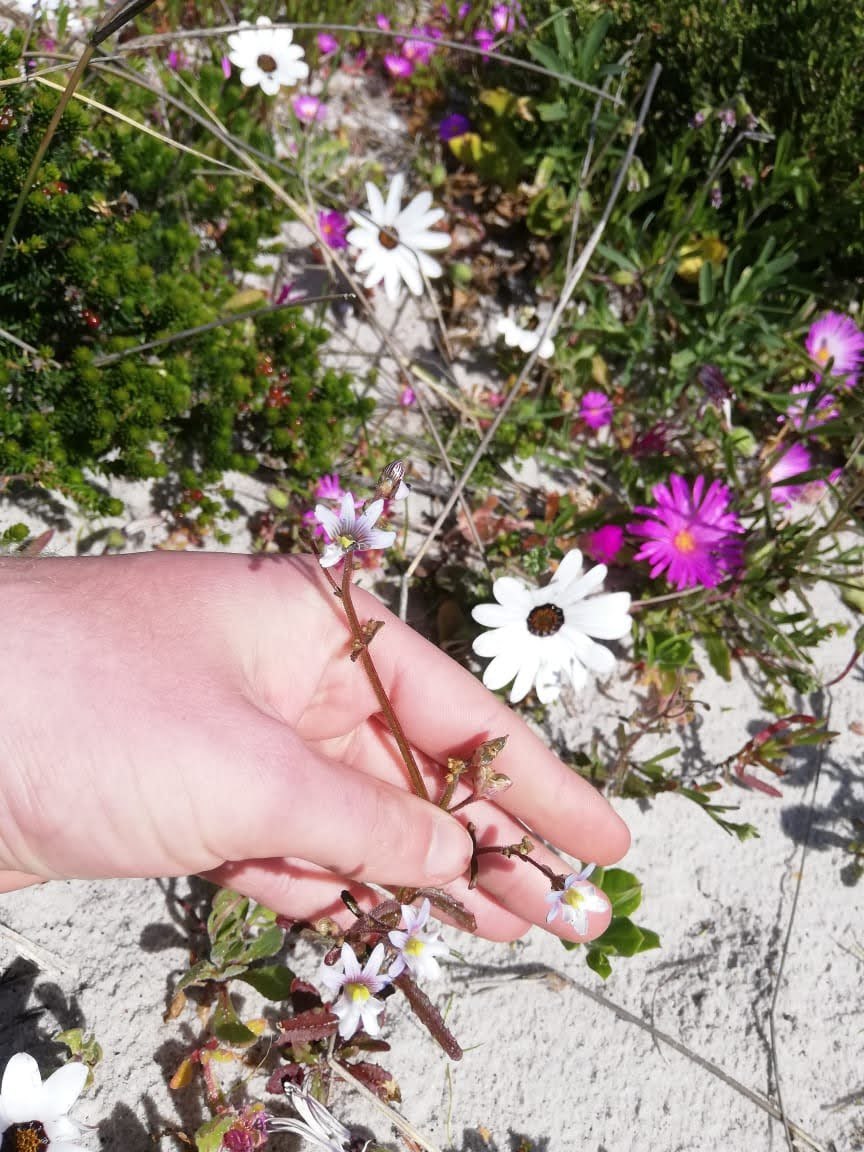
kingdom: Plantae
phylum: Tracheophyta
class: Magnoliopsida
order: Lamiales
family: Scrophulariaceae
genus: Nemesia
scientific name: Nemesia bicornis
